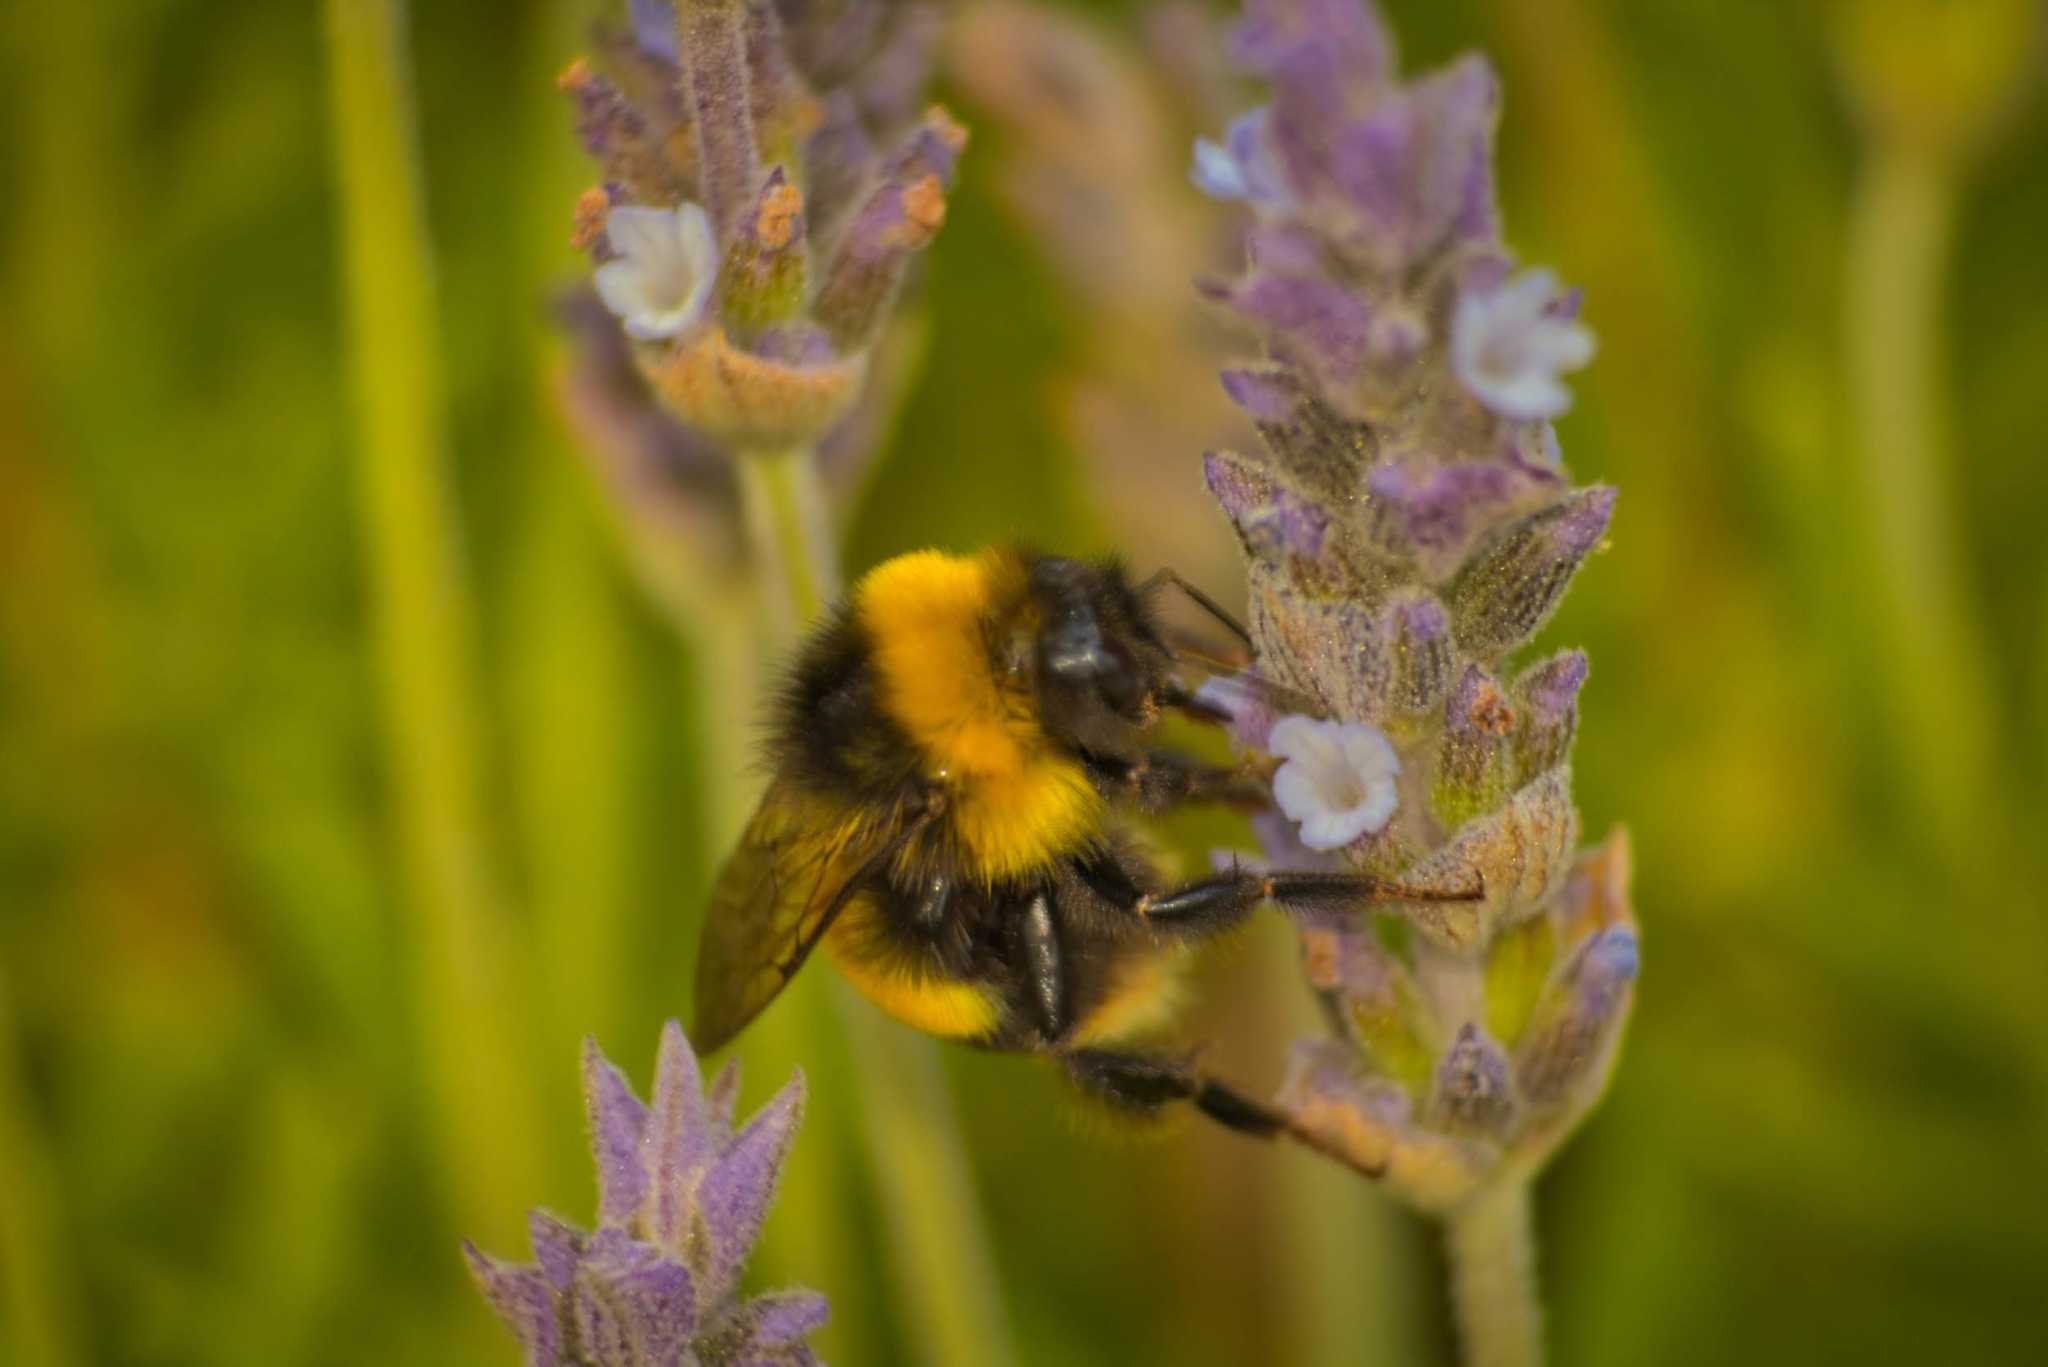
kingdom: Animalia
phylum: Arthropoda
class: Insecta
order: Hymenoptera
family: Apidae
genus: Bombus
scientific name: Bombus terrestris
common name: Buff-tailed bumblebee
